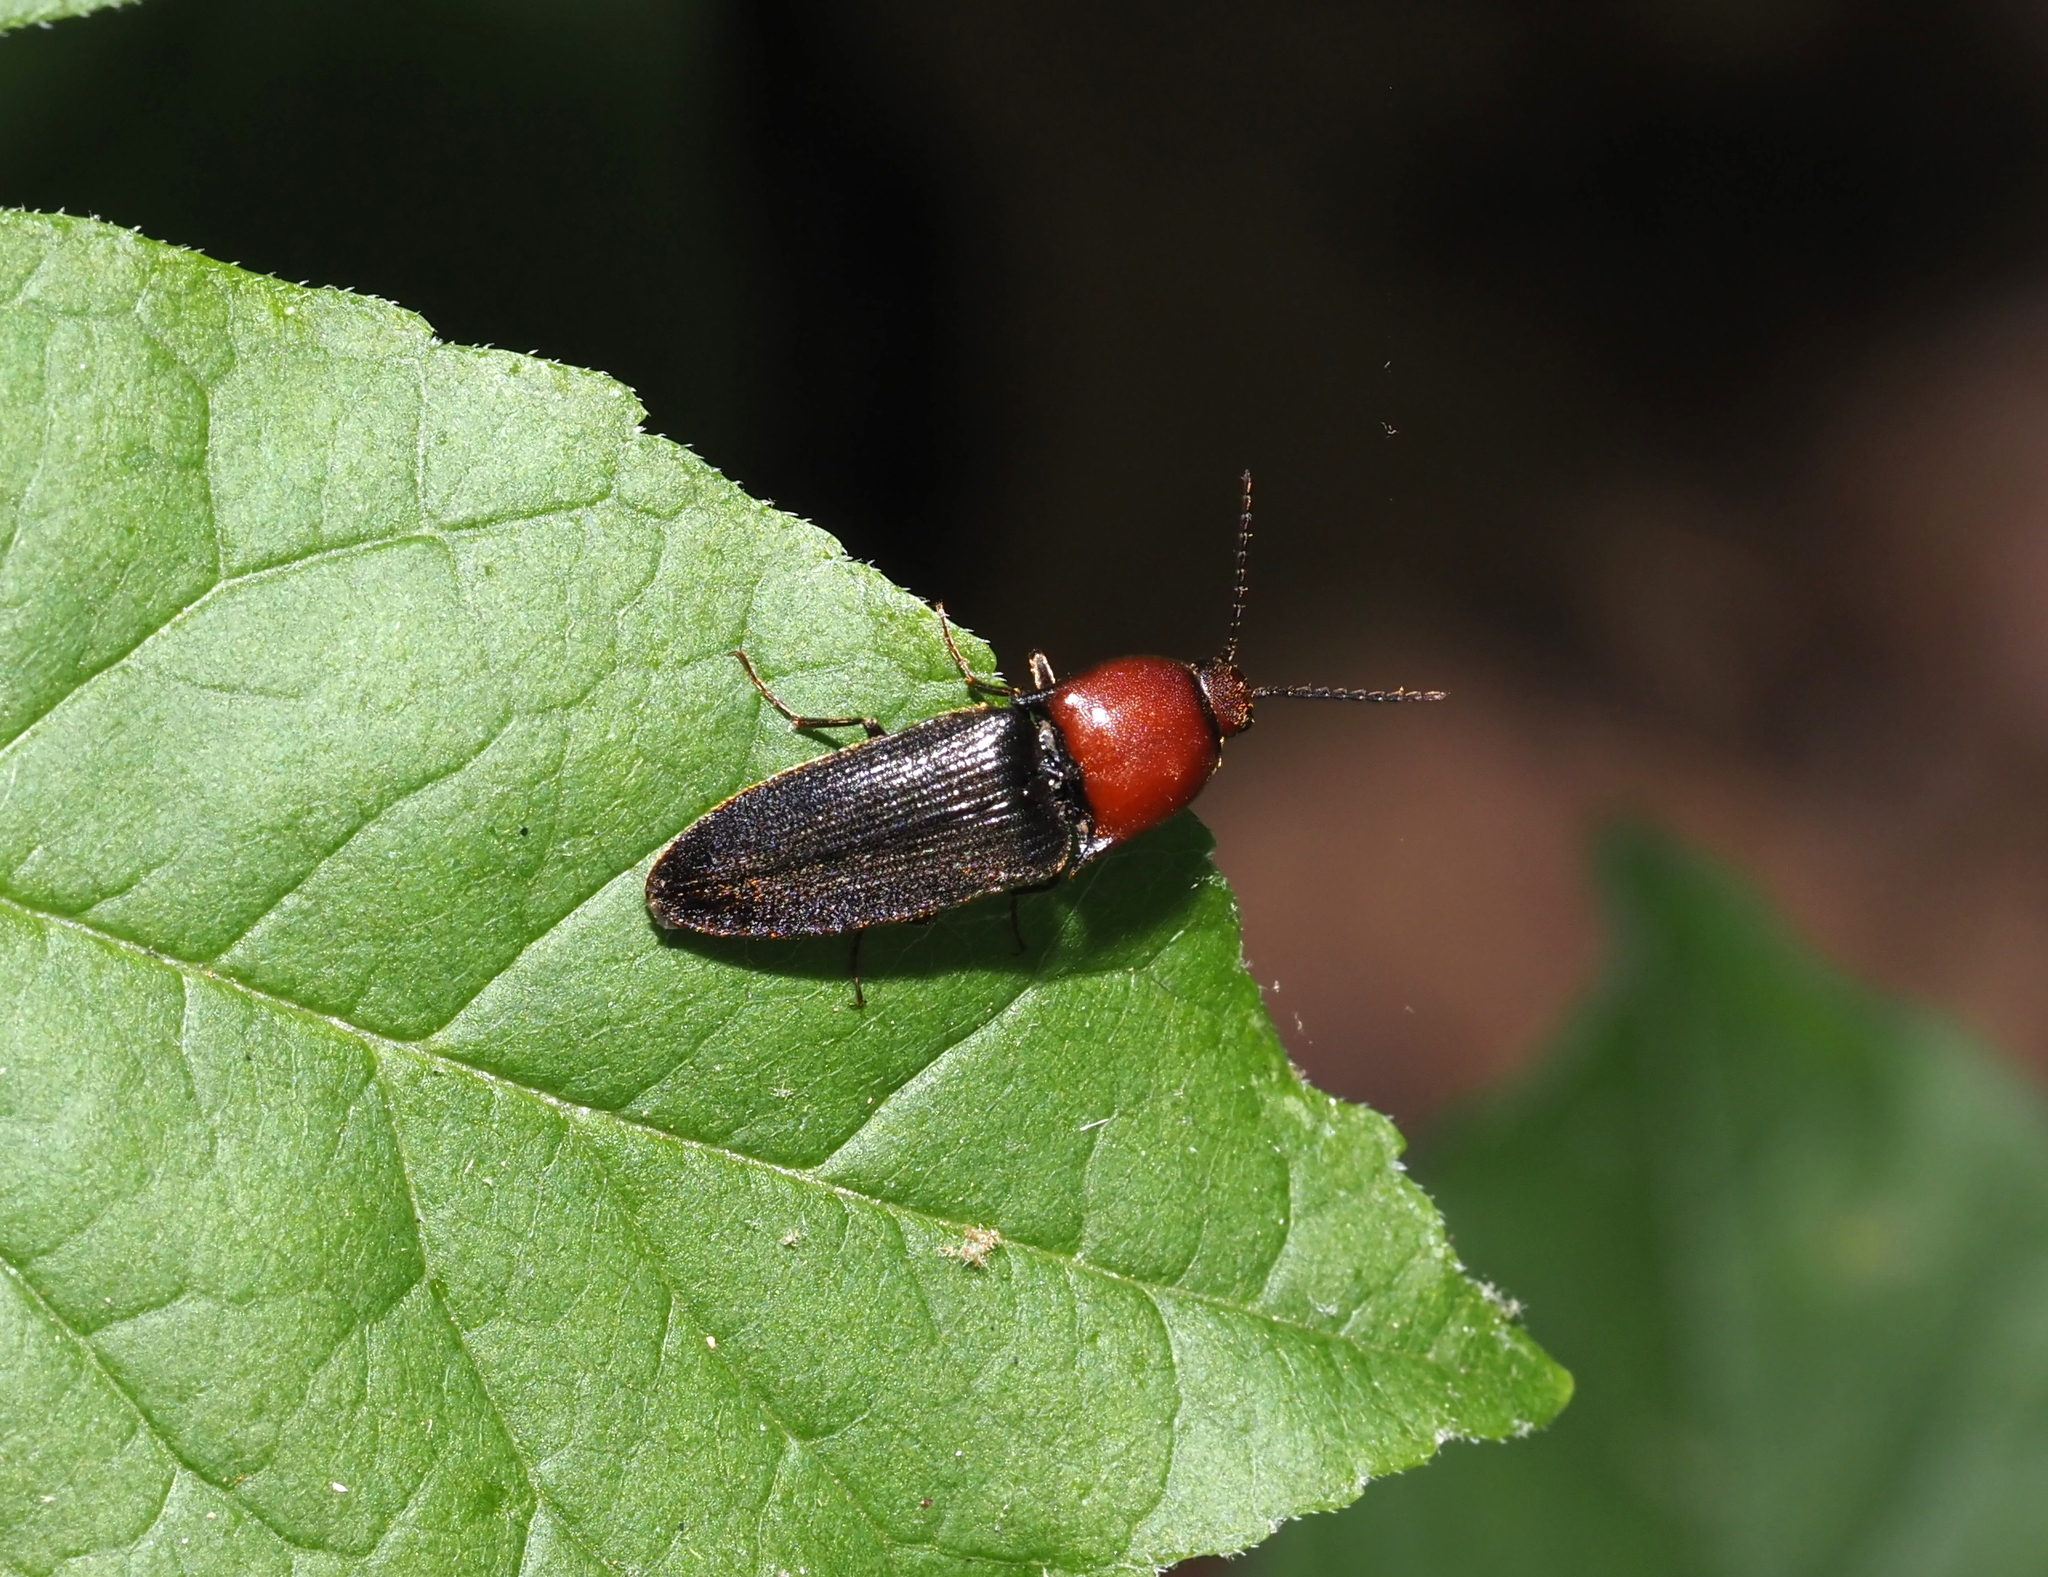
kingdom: Animalia
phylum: Arthropoda
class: Insecta
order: Coleoptera
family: Elateridae
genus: Ampedus
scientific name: Ampedus rubricollis
